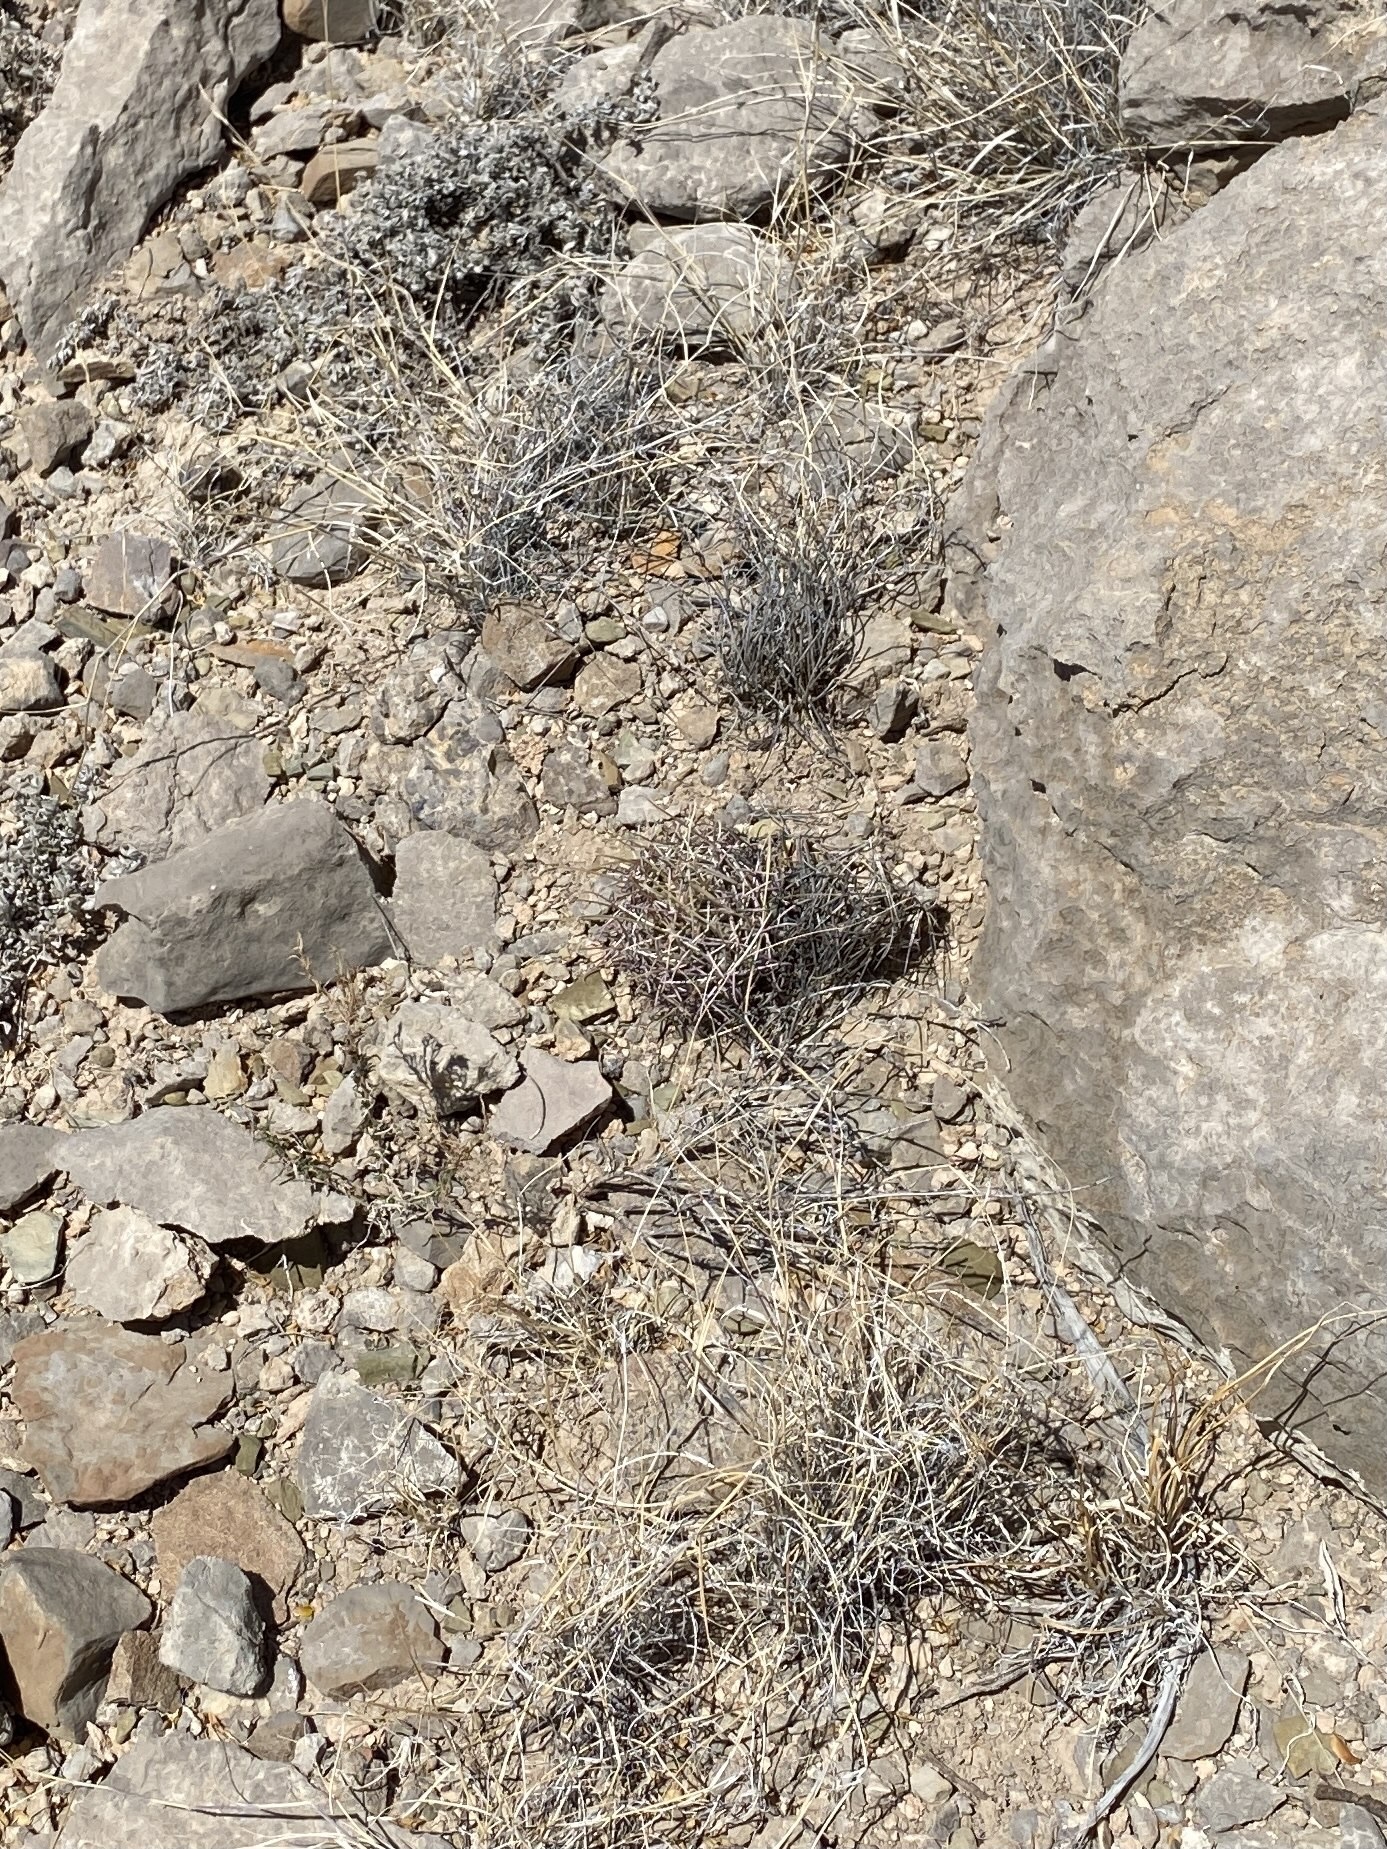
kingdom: Plantae
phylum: Tracheophyta
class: Magnoliopsida
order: Caryophyllales
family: Cactaceae
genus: Ferocactus
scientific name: Ferocactus uncinatus
